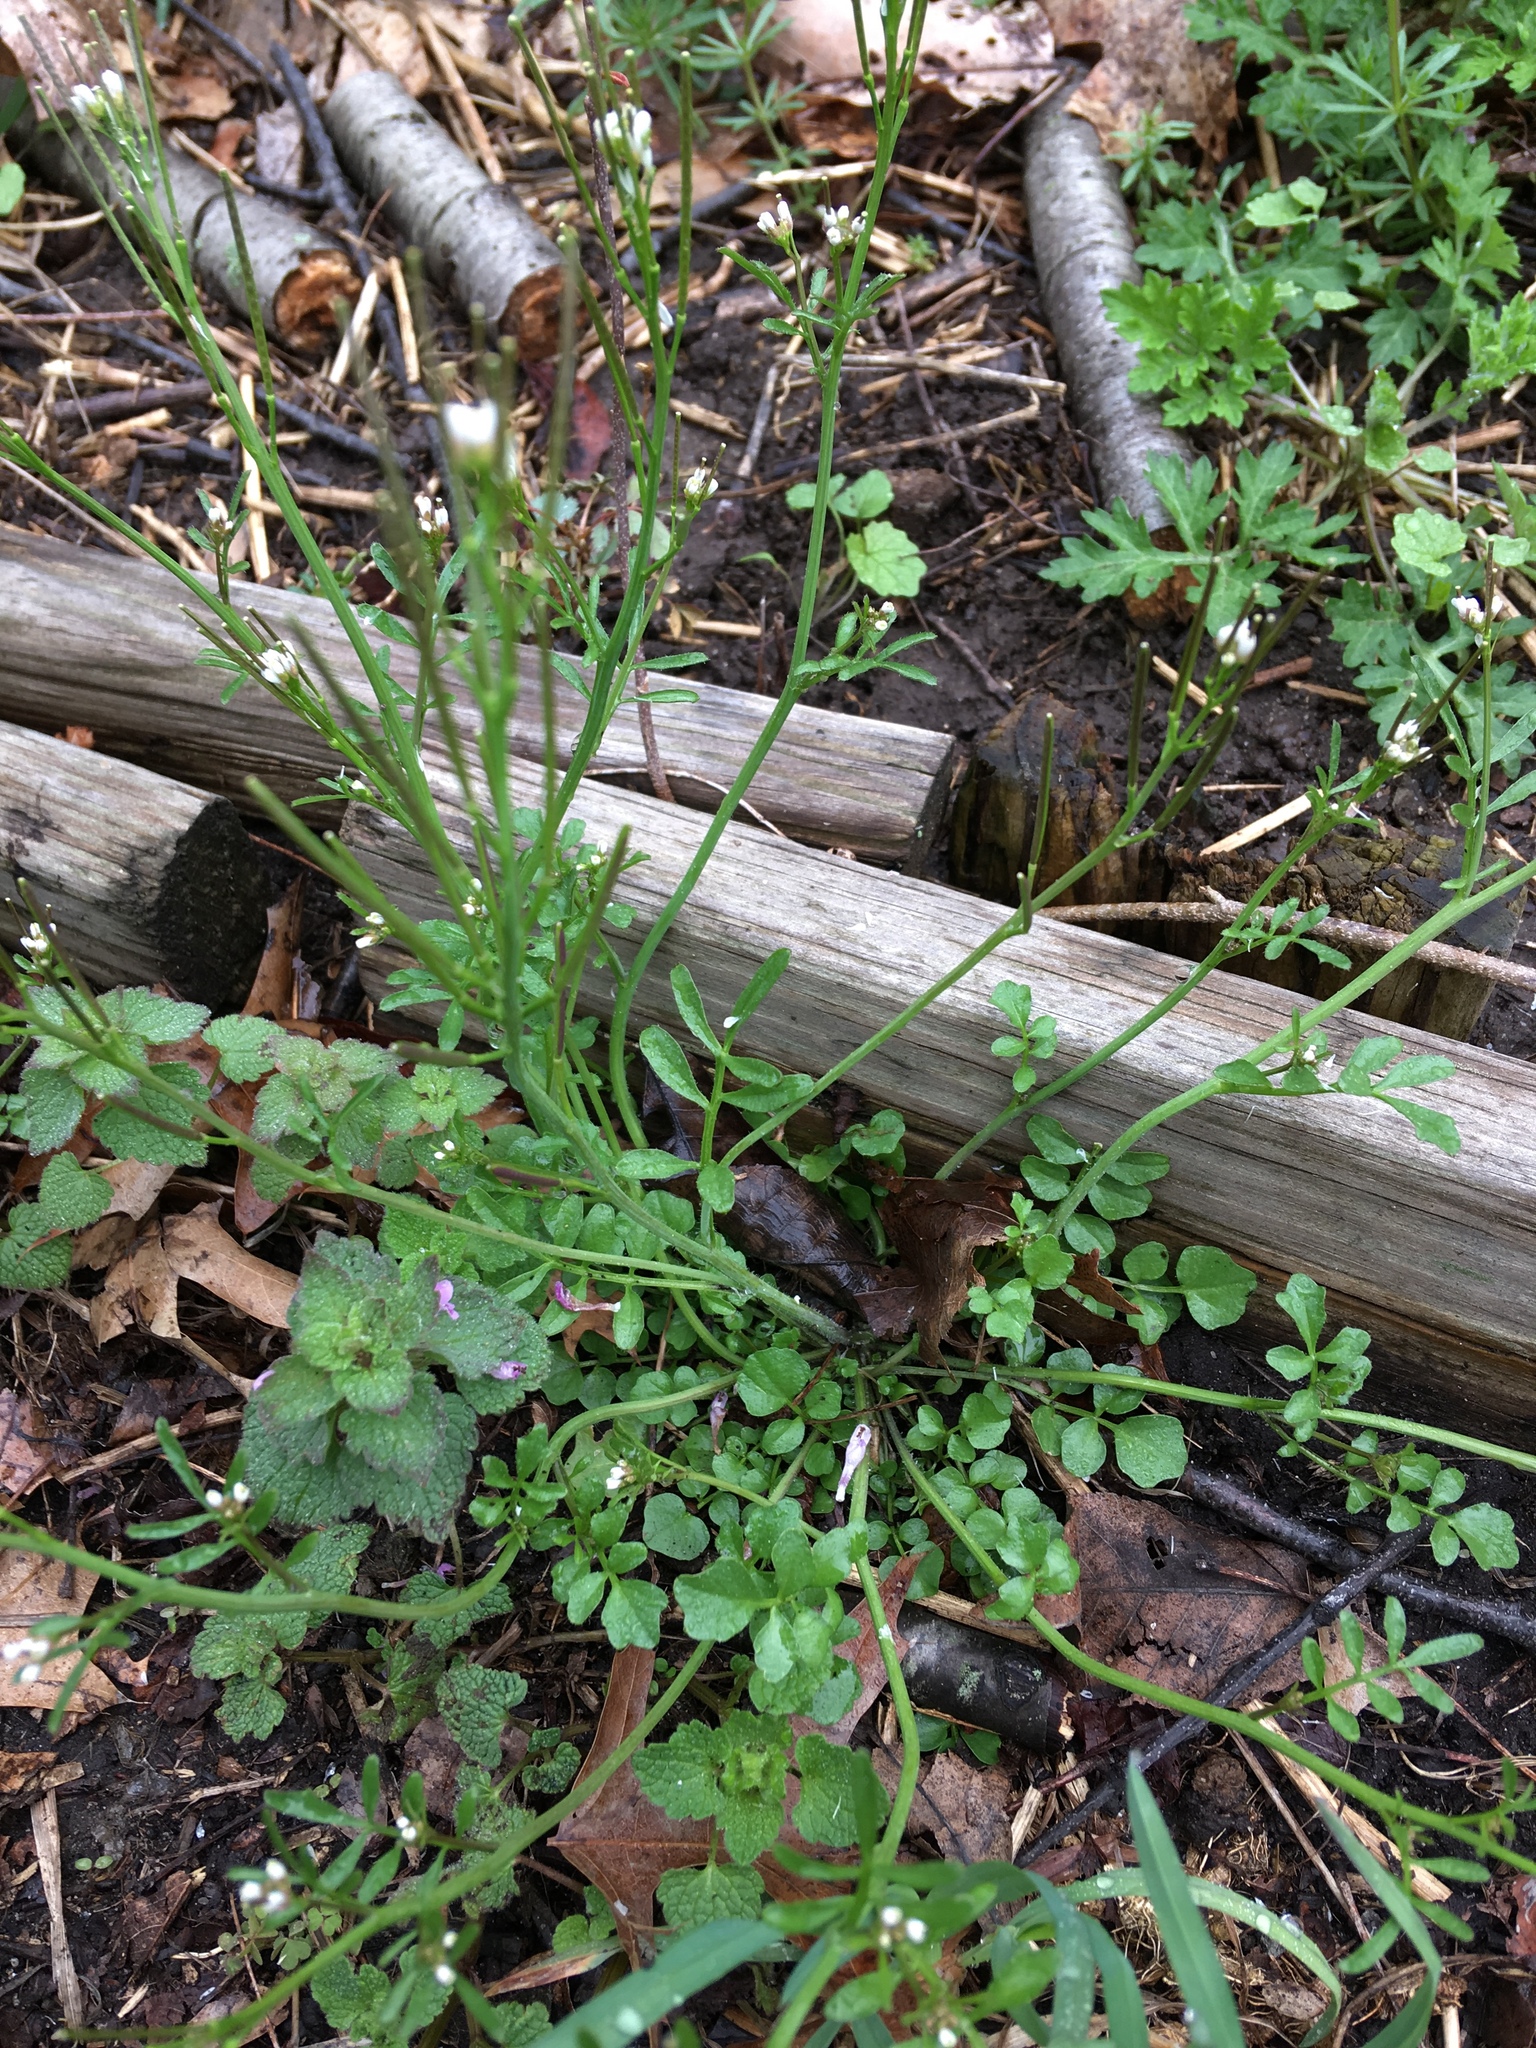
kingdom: Plantae
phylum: Tracheophyta
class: Magnoliopsida
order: Brassicales
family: Brassicaceae
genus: Cardamine
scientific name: Cardamine hirsuta
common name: Hairy bittercress
